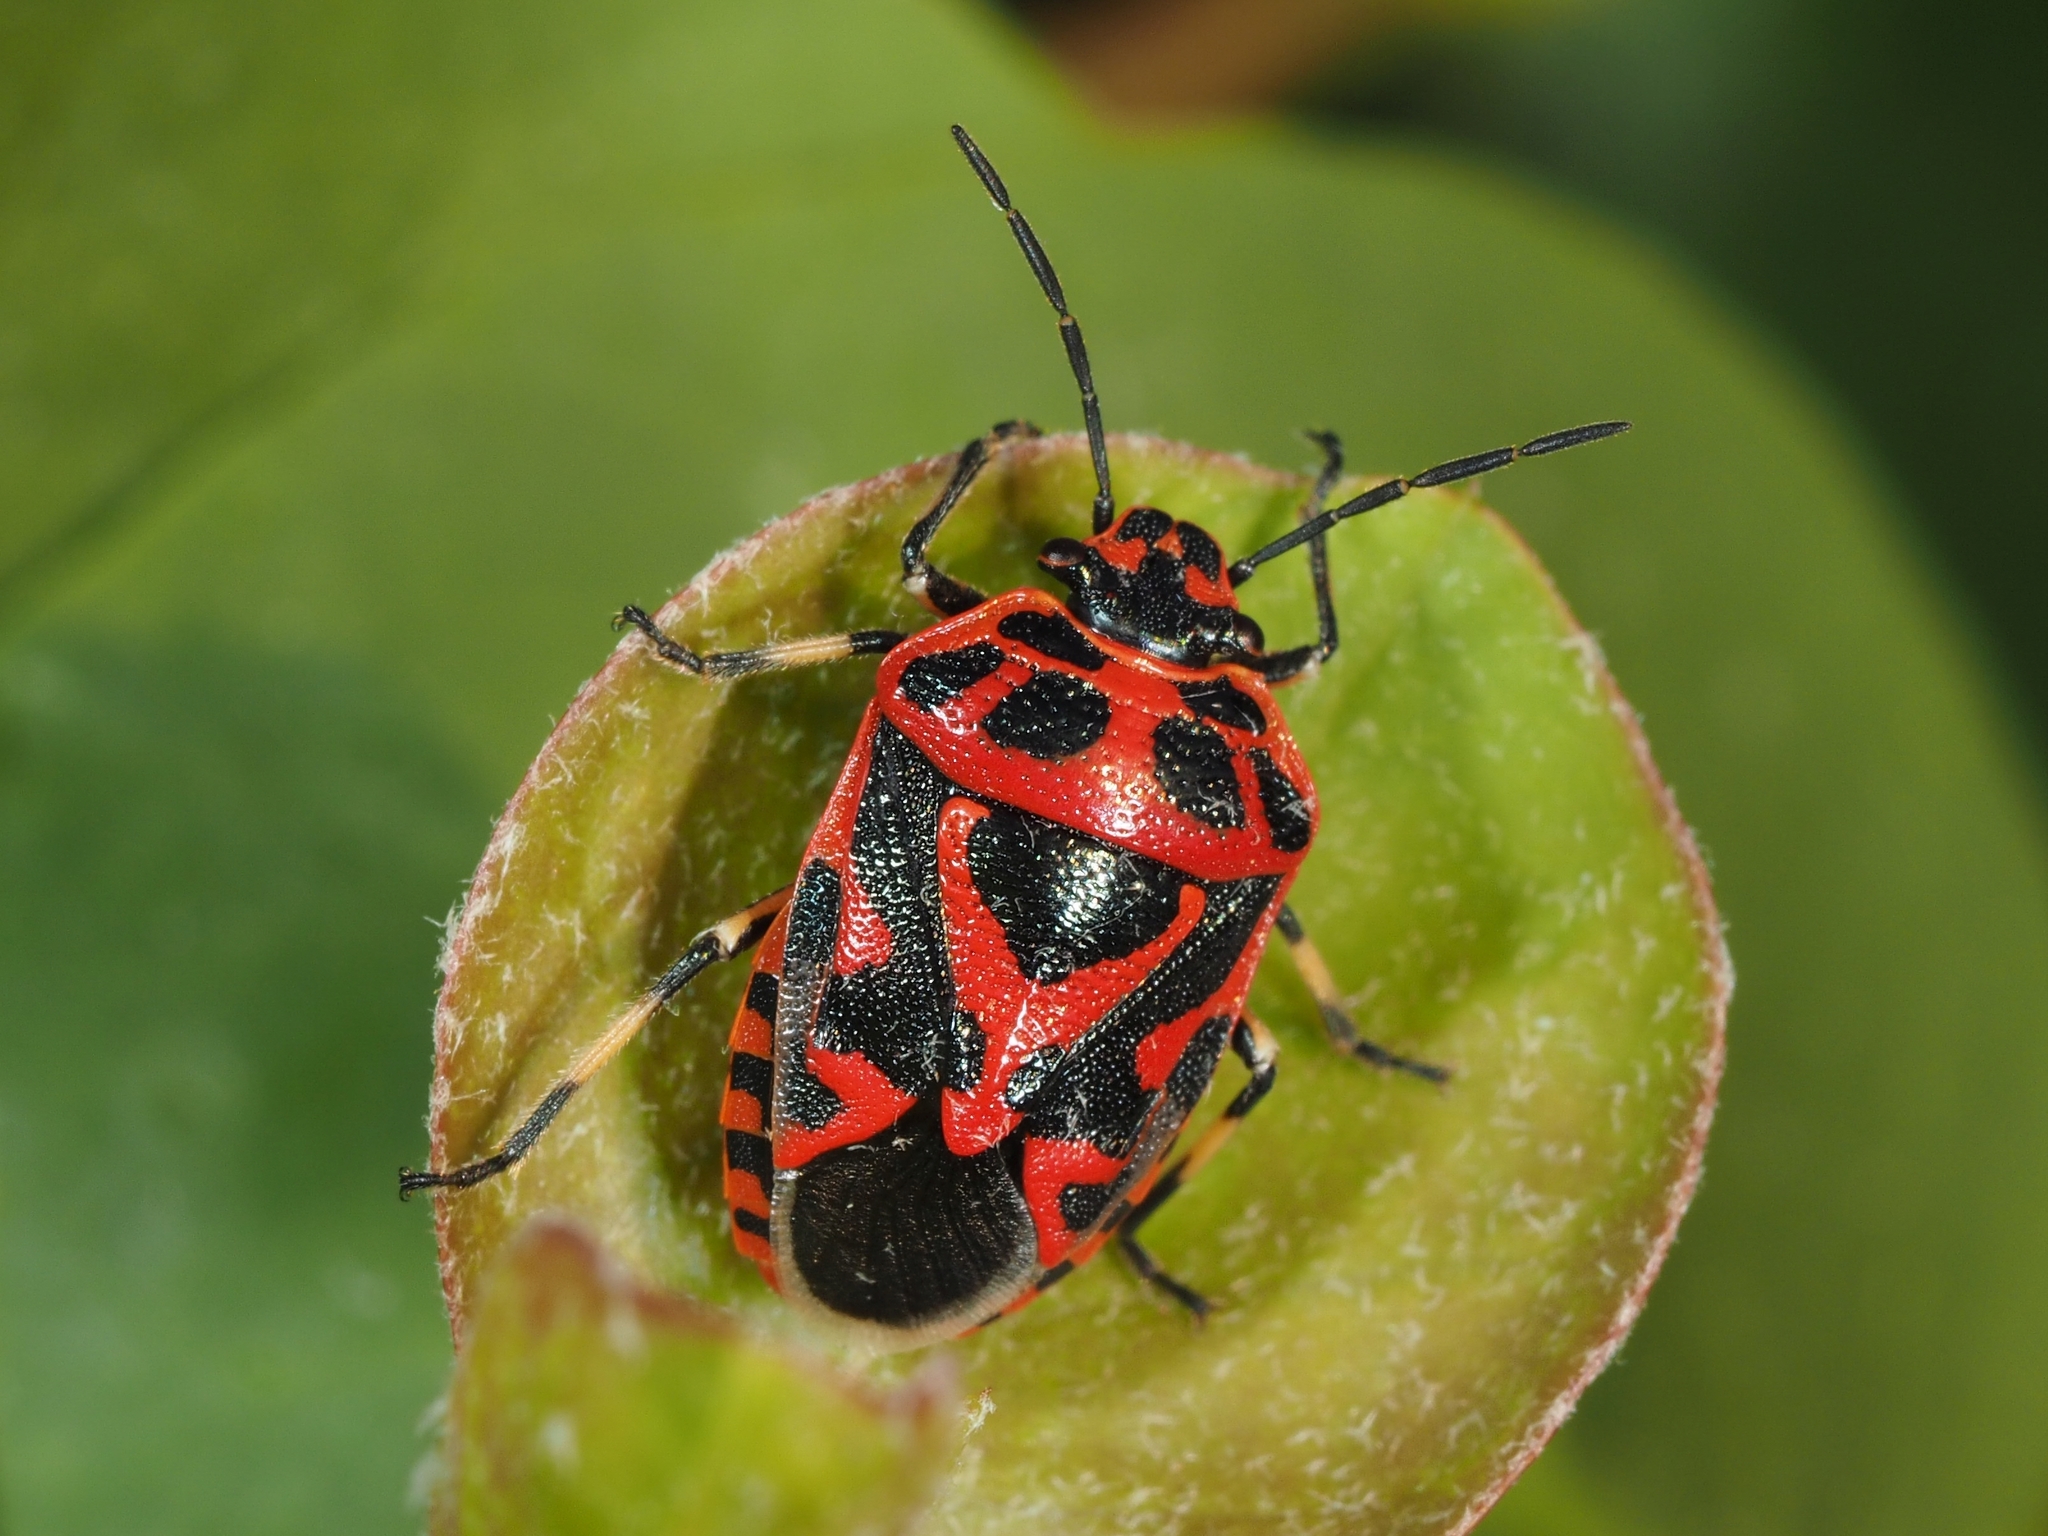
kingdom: Animalia
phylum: Arthropoda
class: Insecta
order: Hemiptera
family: Pentatomidae
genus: Eurydema
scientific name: Eurydema ornata
